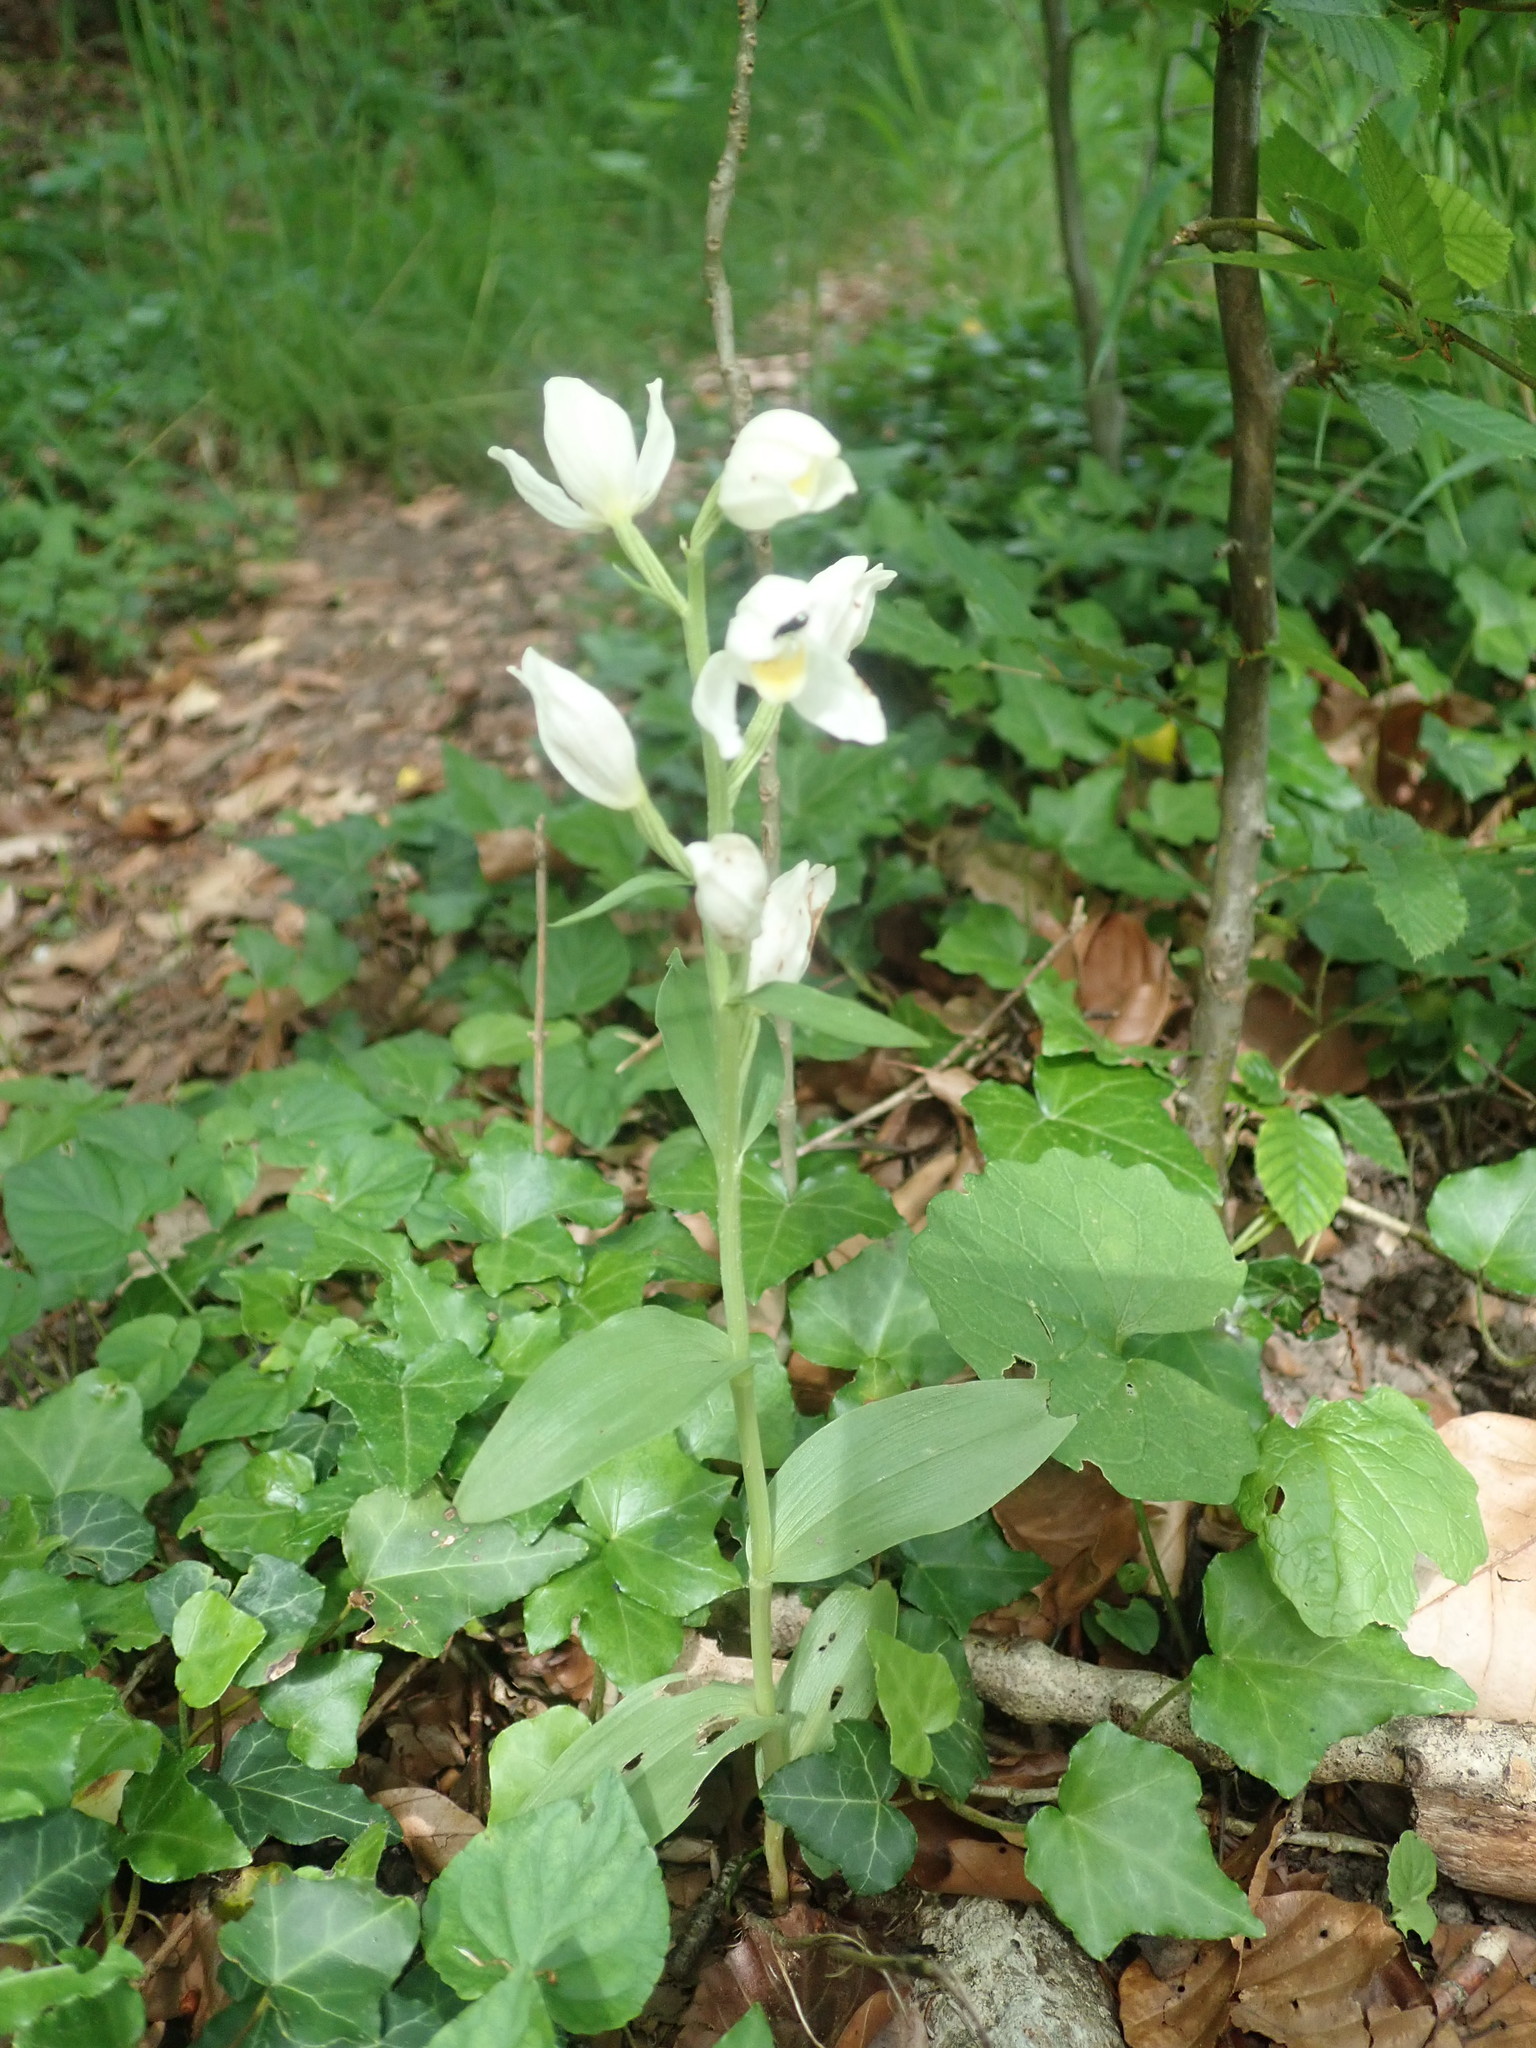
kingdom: Plantae
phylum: Tracheophyta
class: Liliopsida
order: Asparagales
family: Orchidaceae
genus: Cephalanthera
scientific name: Cephalanthera damasonium
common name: White helleborine
